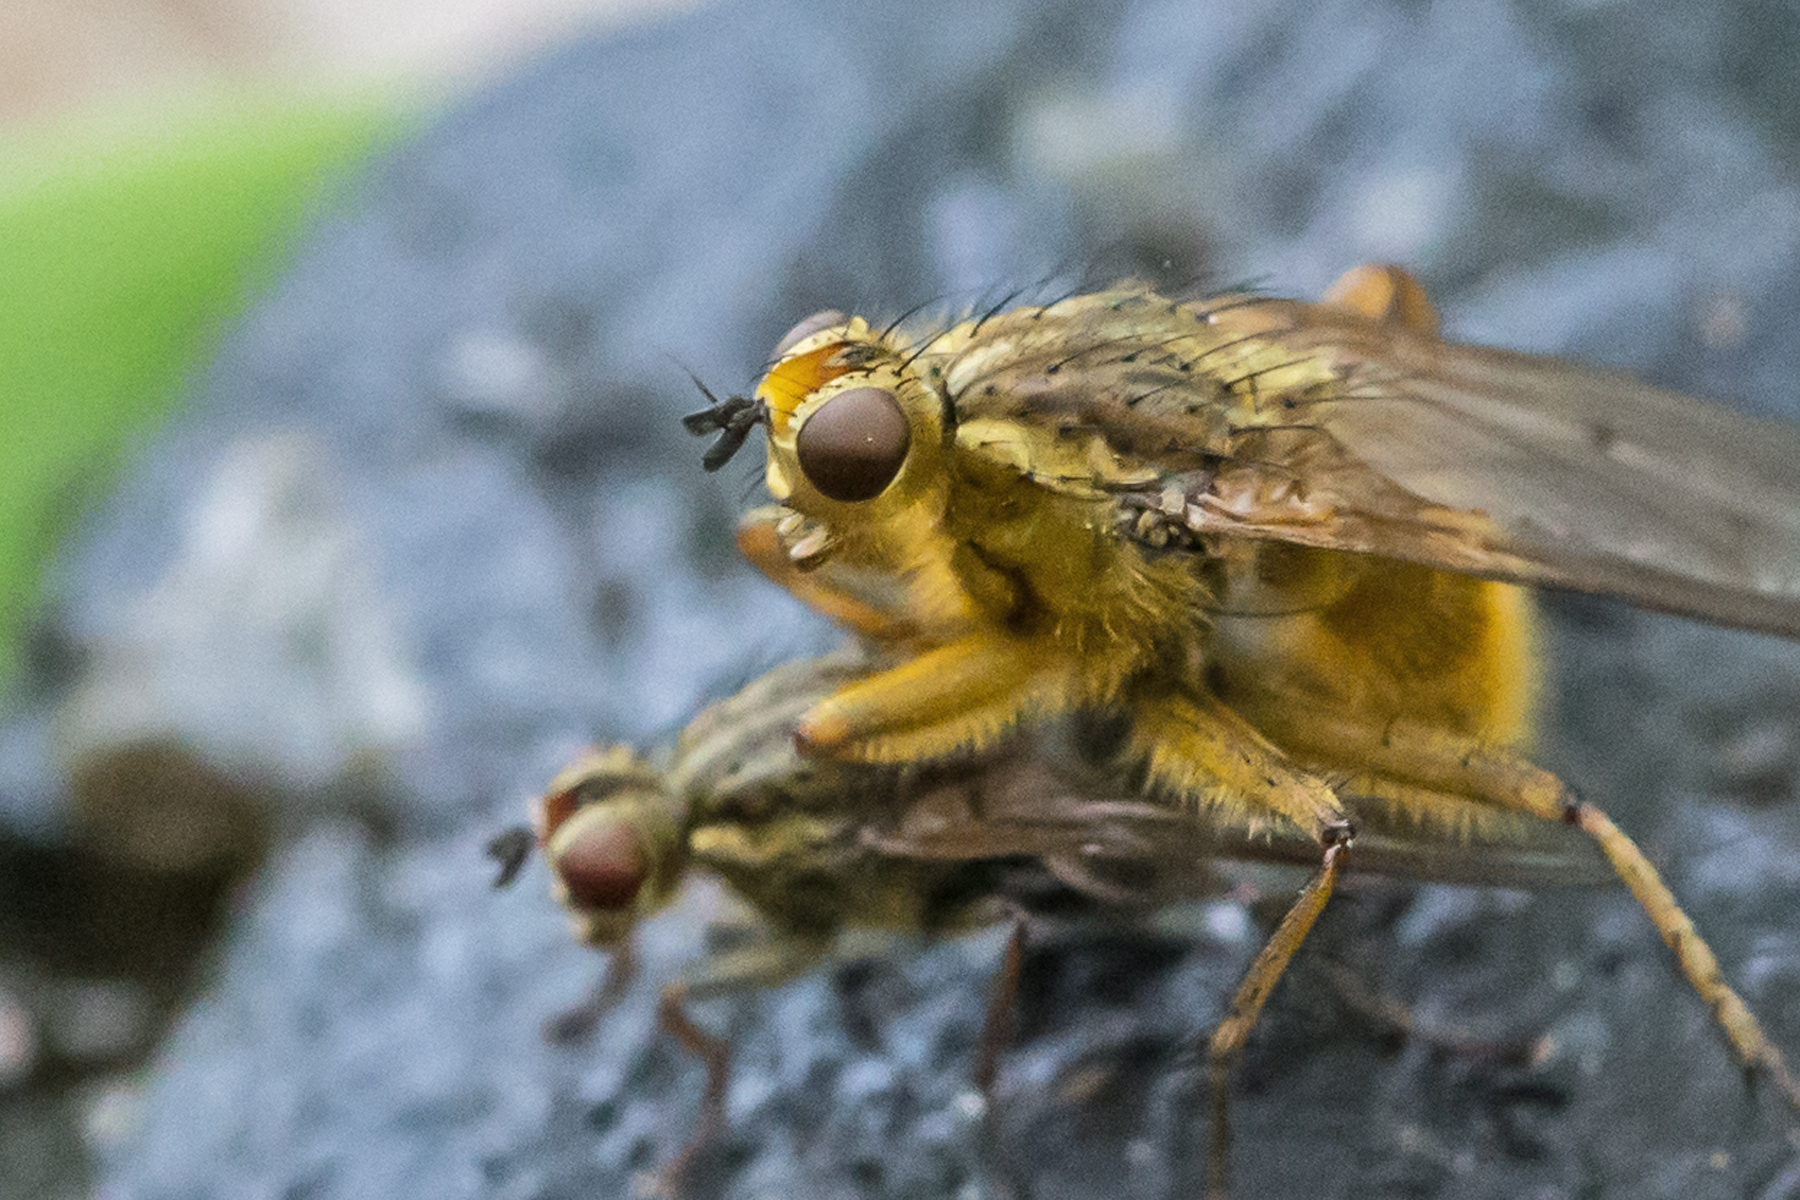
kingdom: Animalia
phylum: Arthropoda
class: Insecta
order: Diptera
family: Scathophagidae
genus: Scathophaga
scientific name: Scathophaga stercoraria
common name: Yellow dung fly
